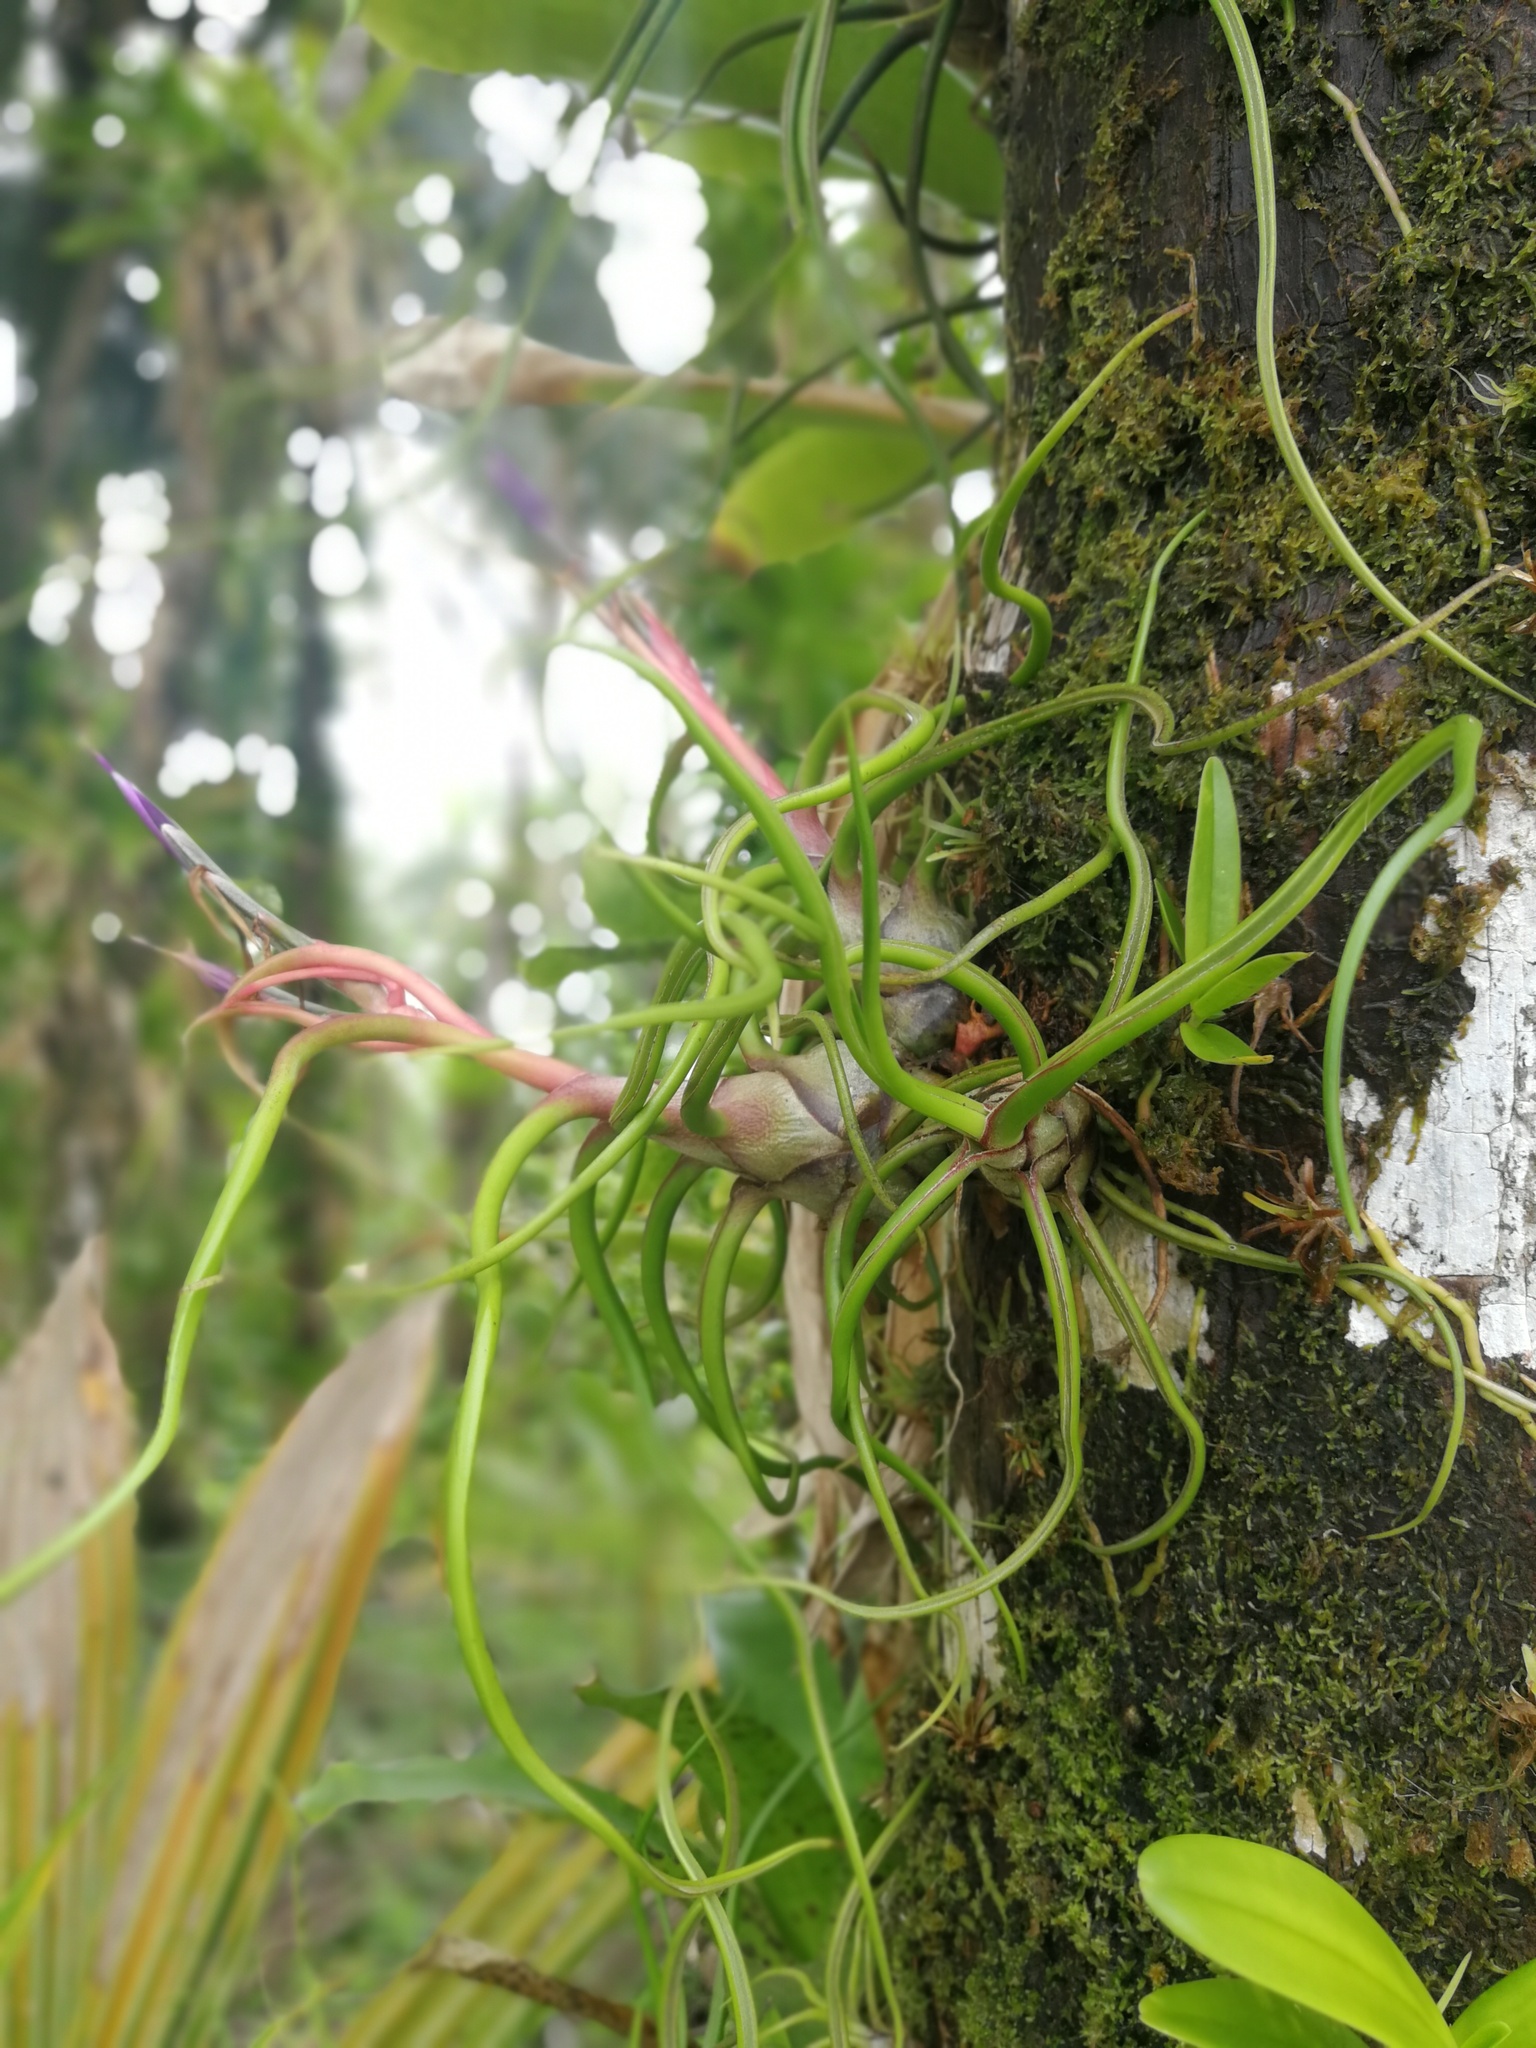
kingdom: Plantae
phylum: Tracheophyta
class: Liliopsida
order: Poales
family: Bromeliaceae
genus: Tillandsia
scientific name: Tillandsia bulbosa
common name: Bulbous airplant
